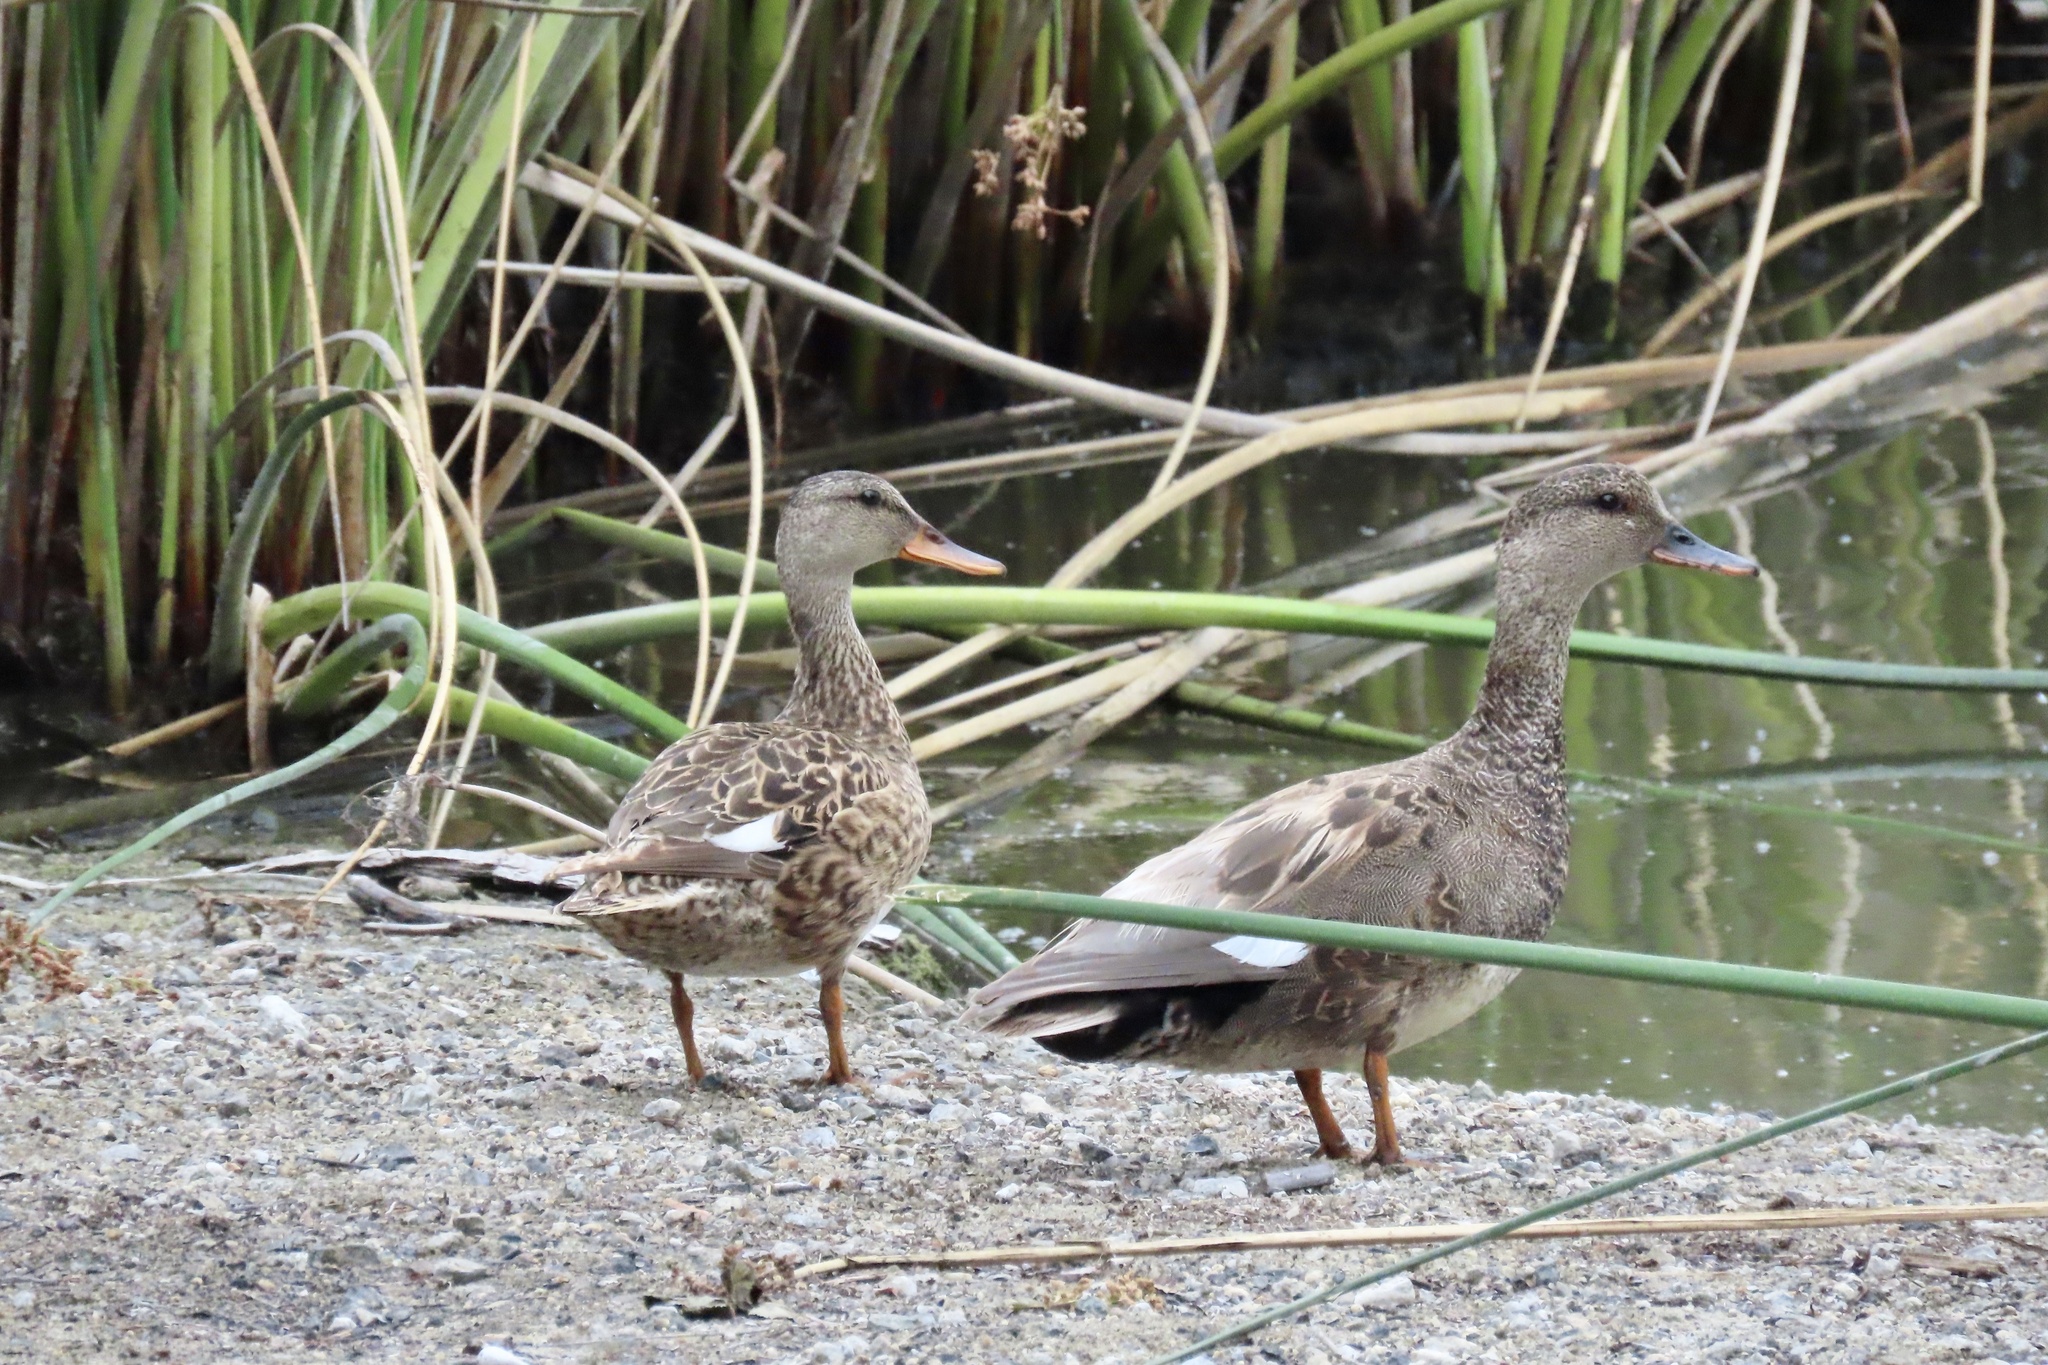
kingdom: Animalia
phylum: Chordata
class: Aves
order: Anseriformes
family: Anatidae
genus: Mareca
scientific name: Mareca strepera
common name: Gadwall
